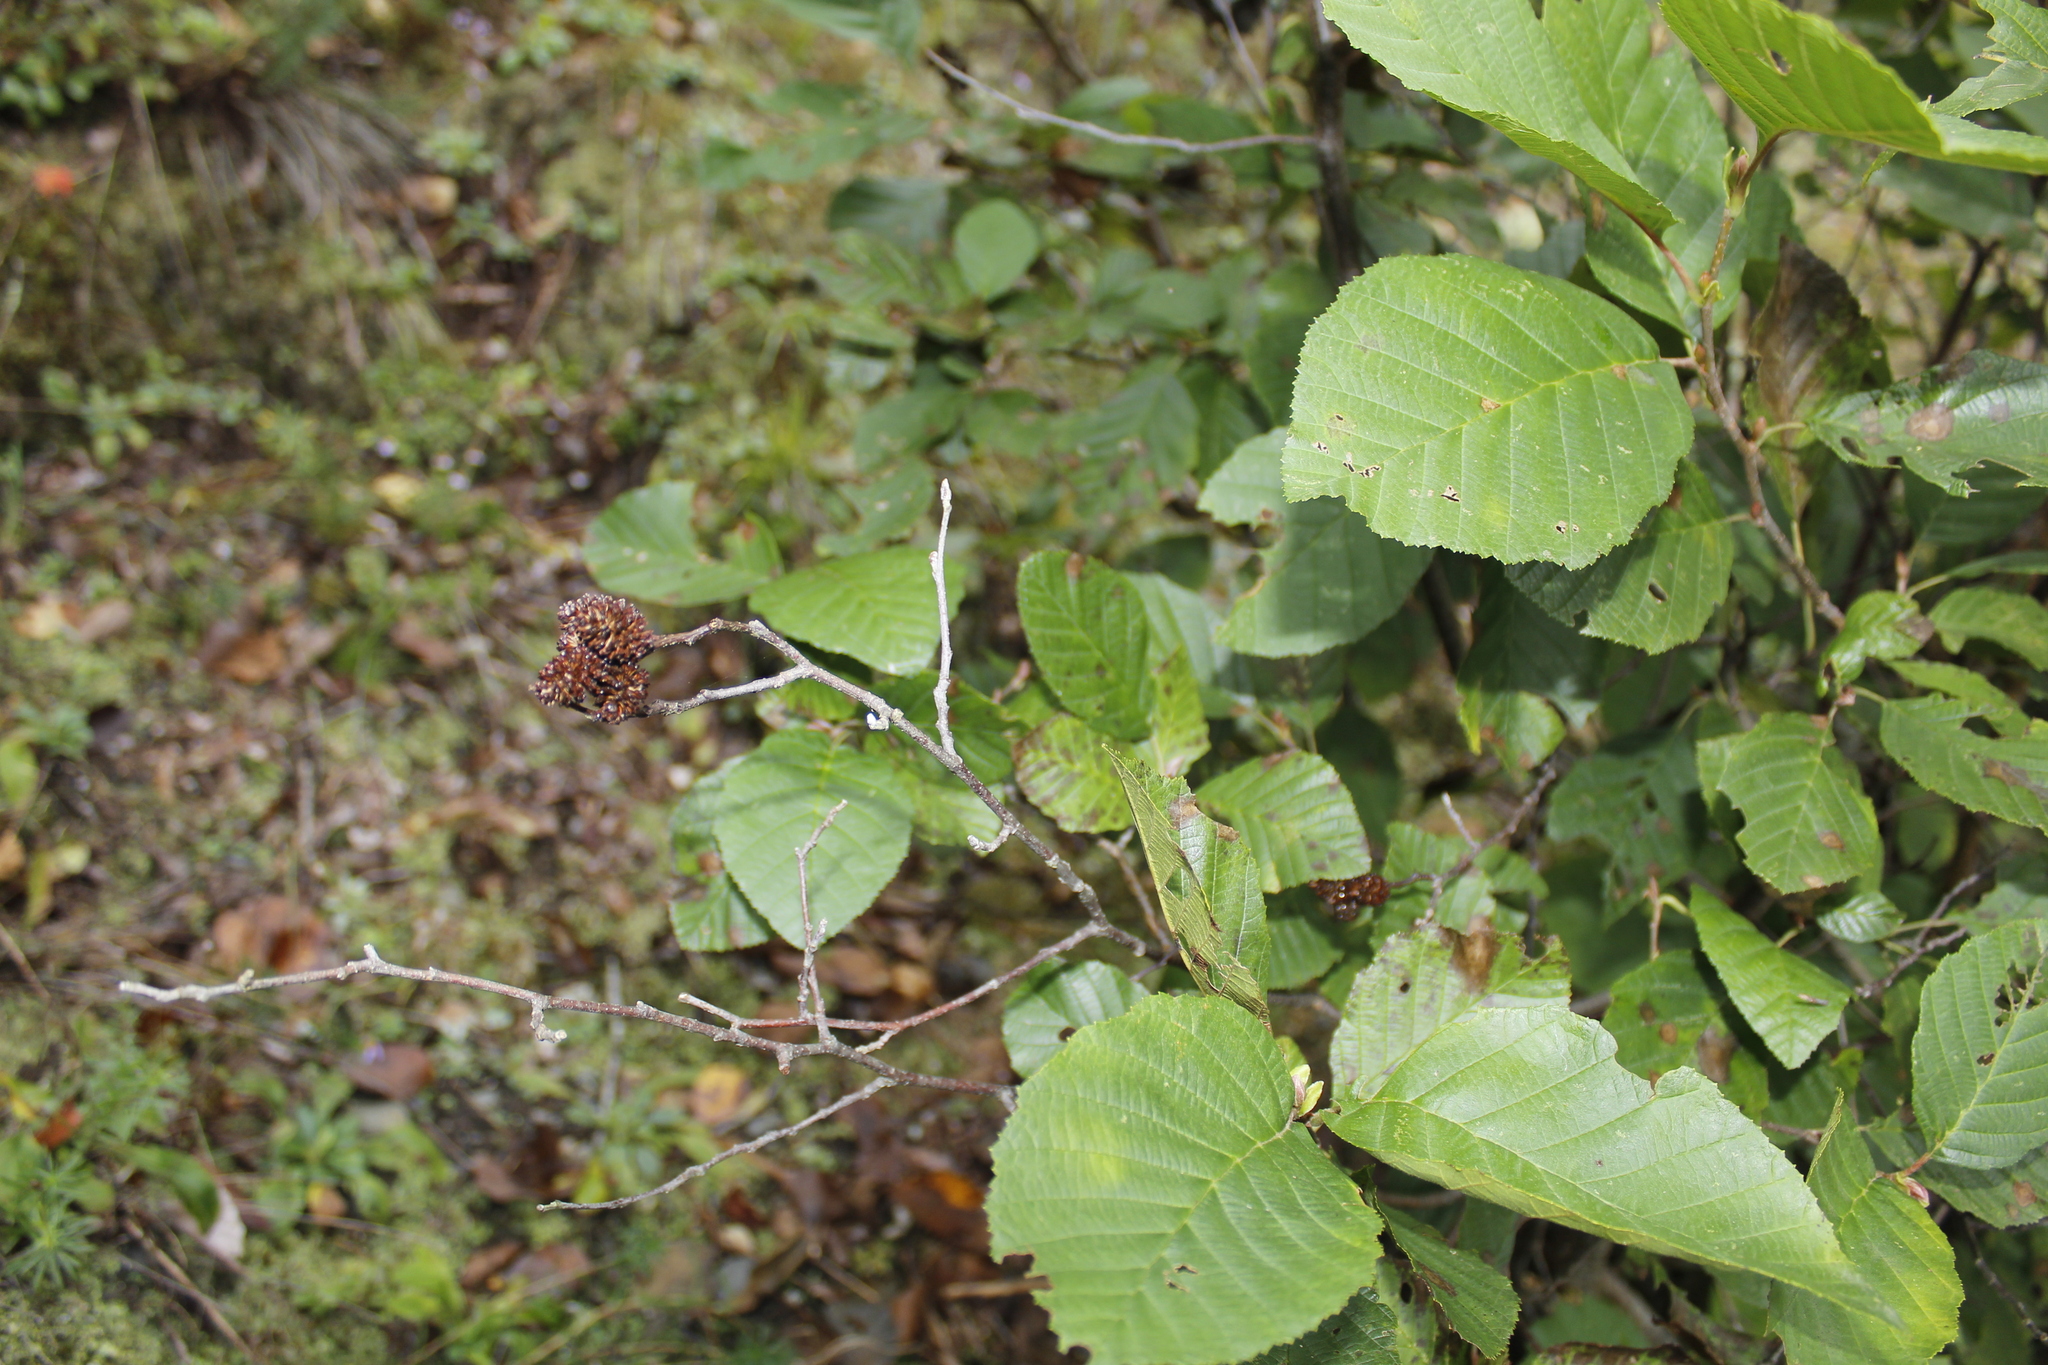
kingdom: Plantae
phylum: Tracheophyta
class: Magnoliopsida
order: Fagales
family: Betulaceae
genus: Alnus
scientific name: Alnus incana
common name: Grey alder
